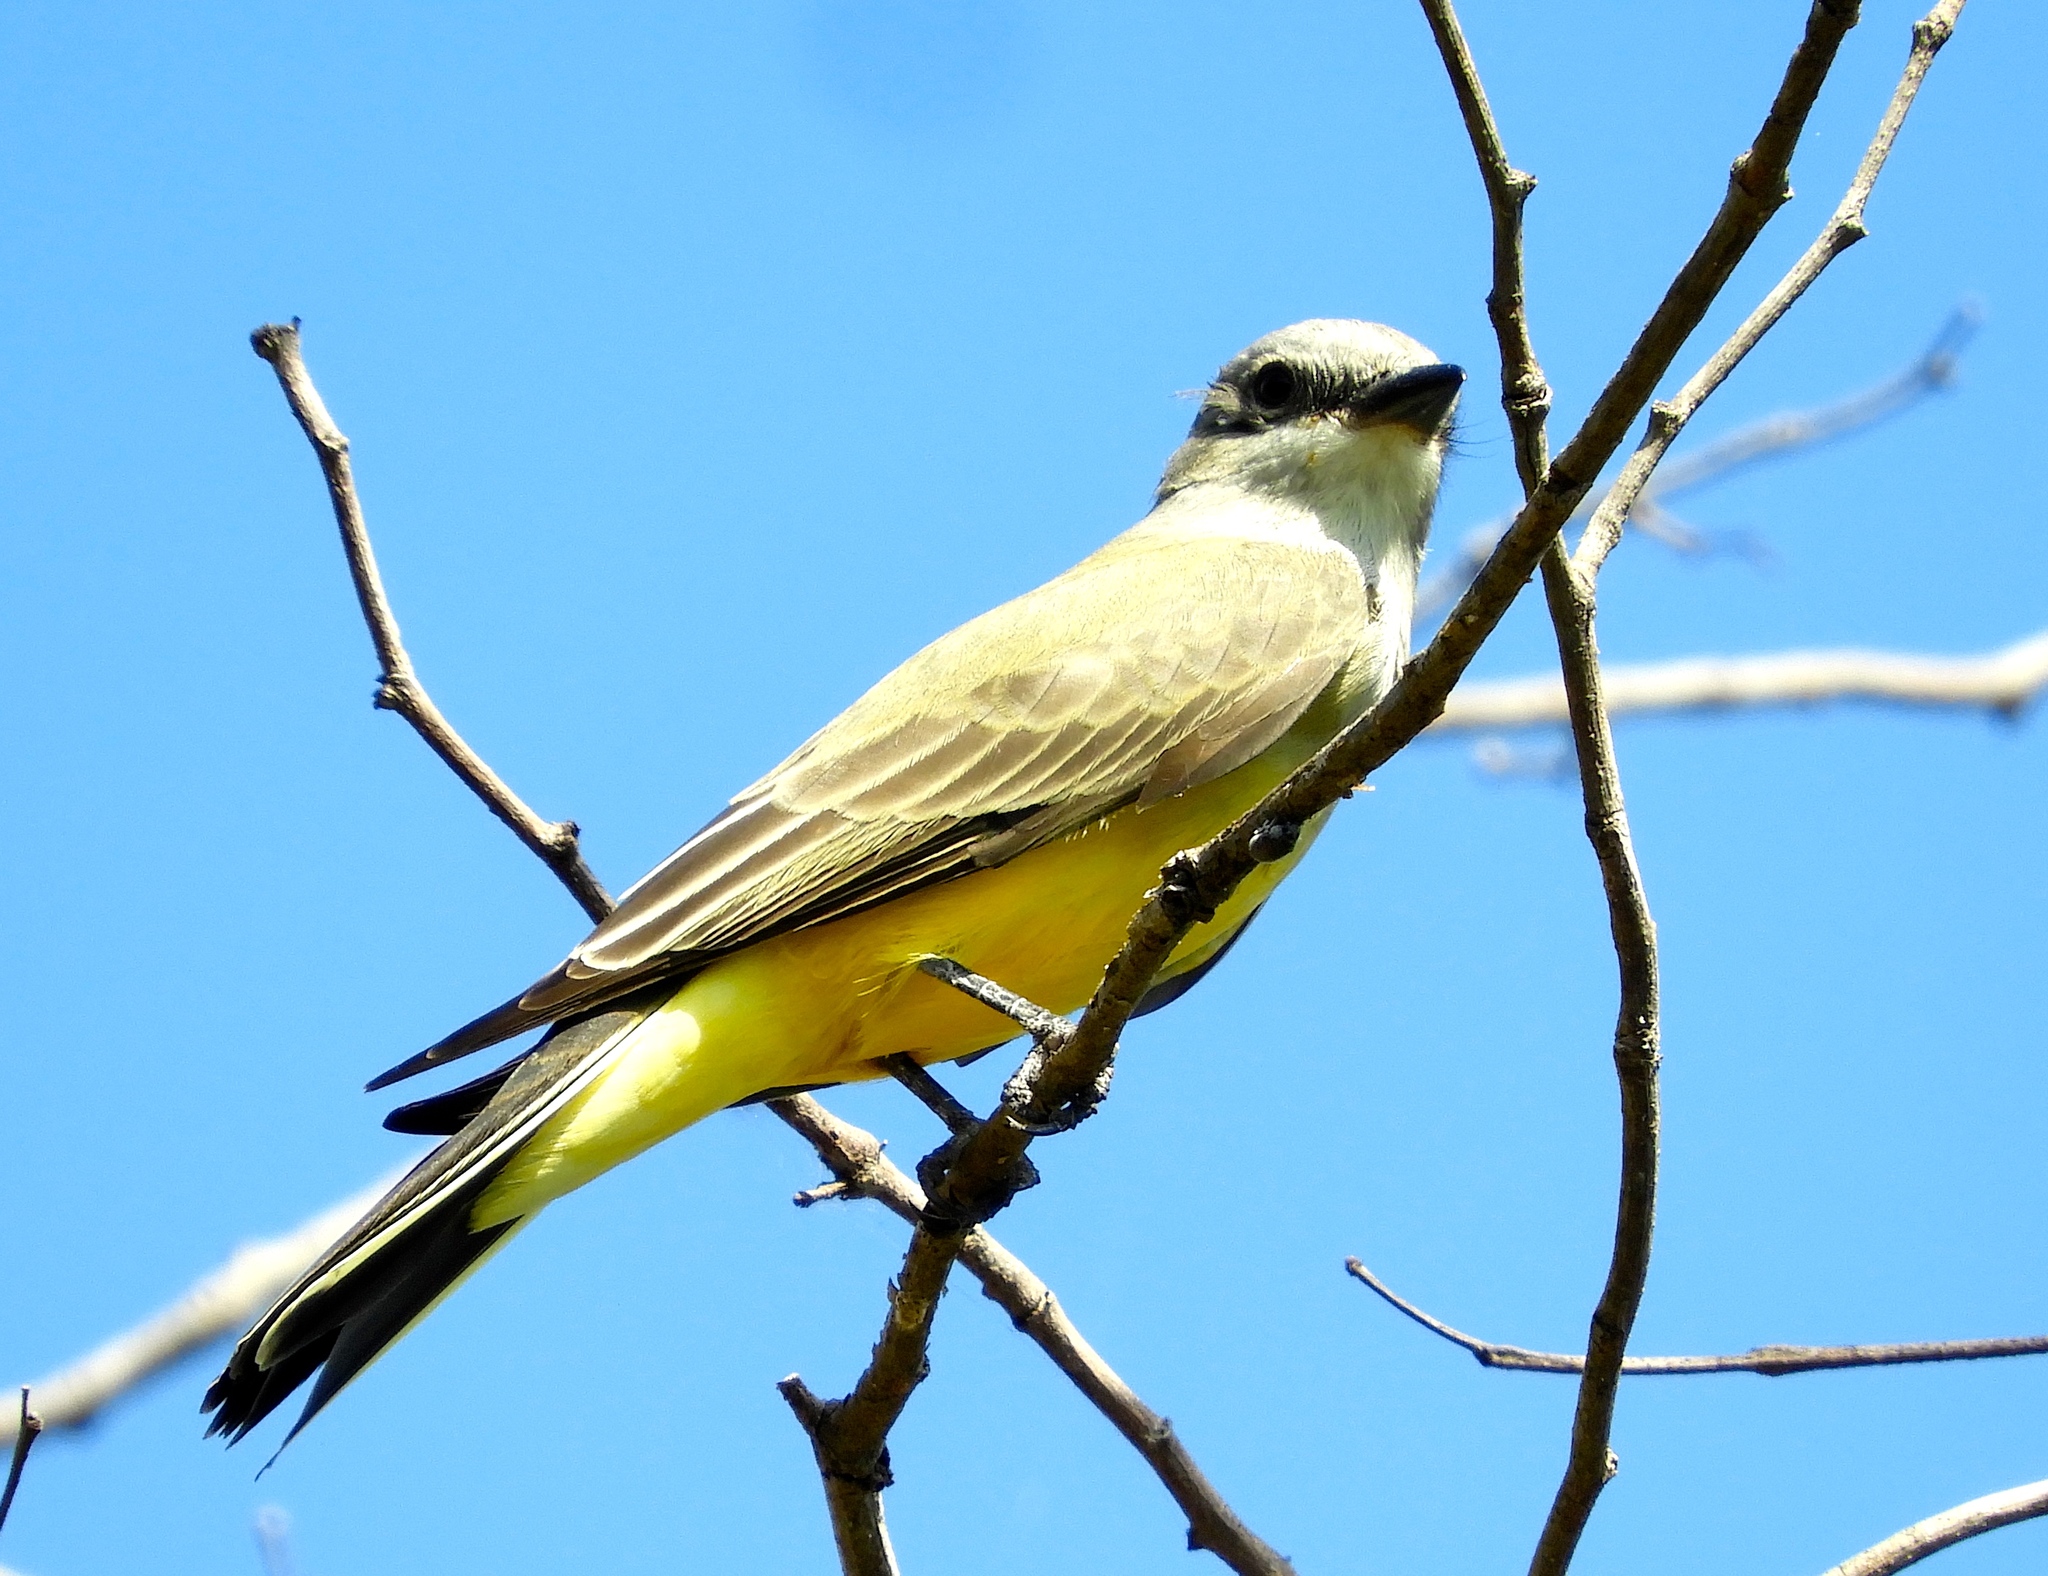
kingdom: Animalia
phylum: Chordata
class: Aves
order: Passeriformes
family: Tyrannidae
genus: Tyrannus
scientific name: Tyrannus melancholicus
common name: Tropical kingbird
